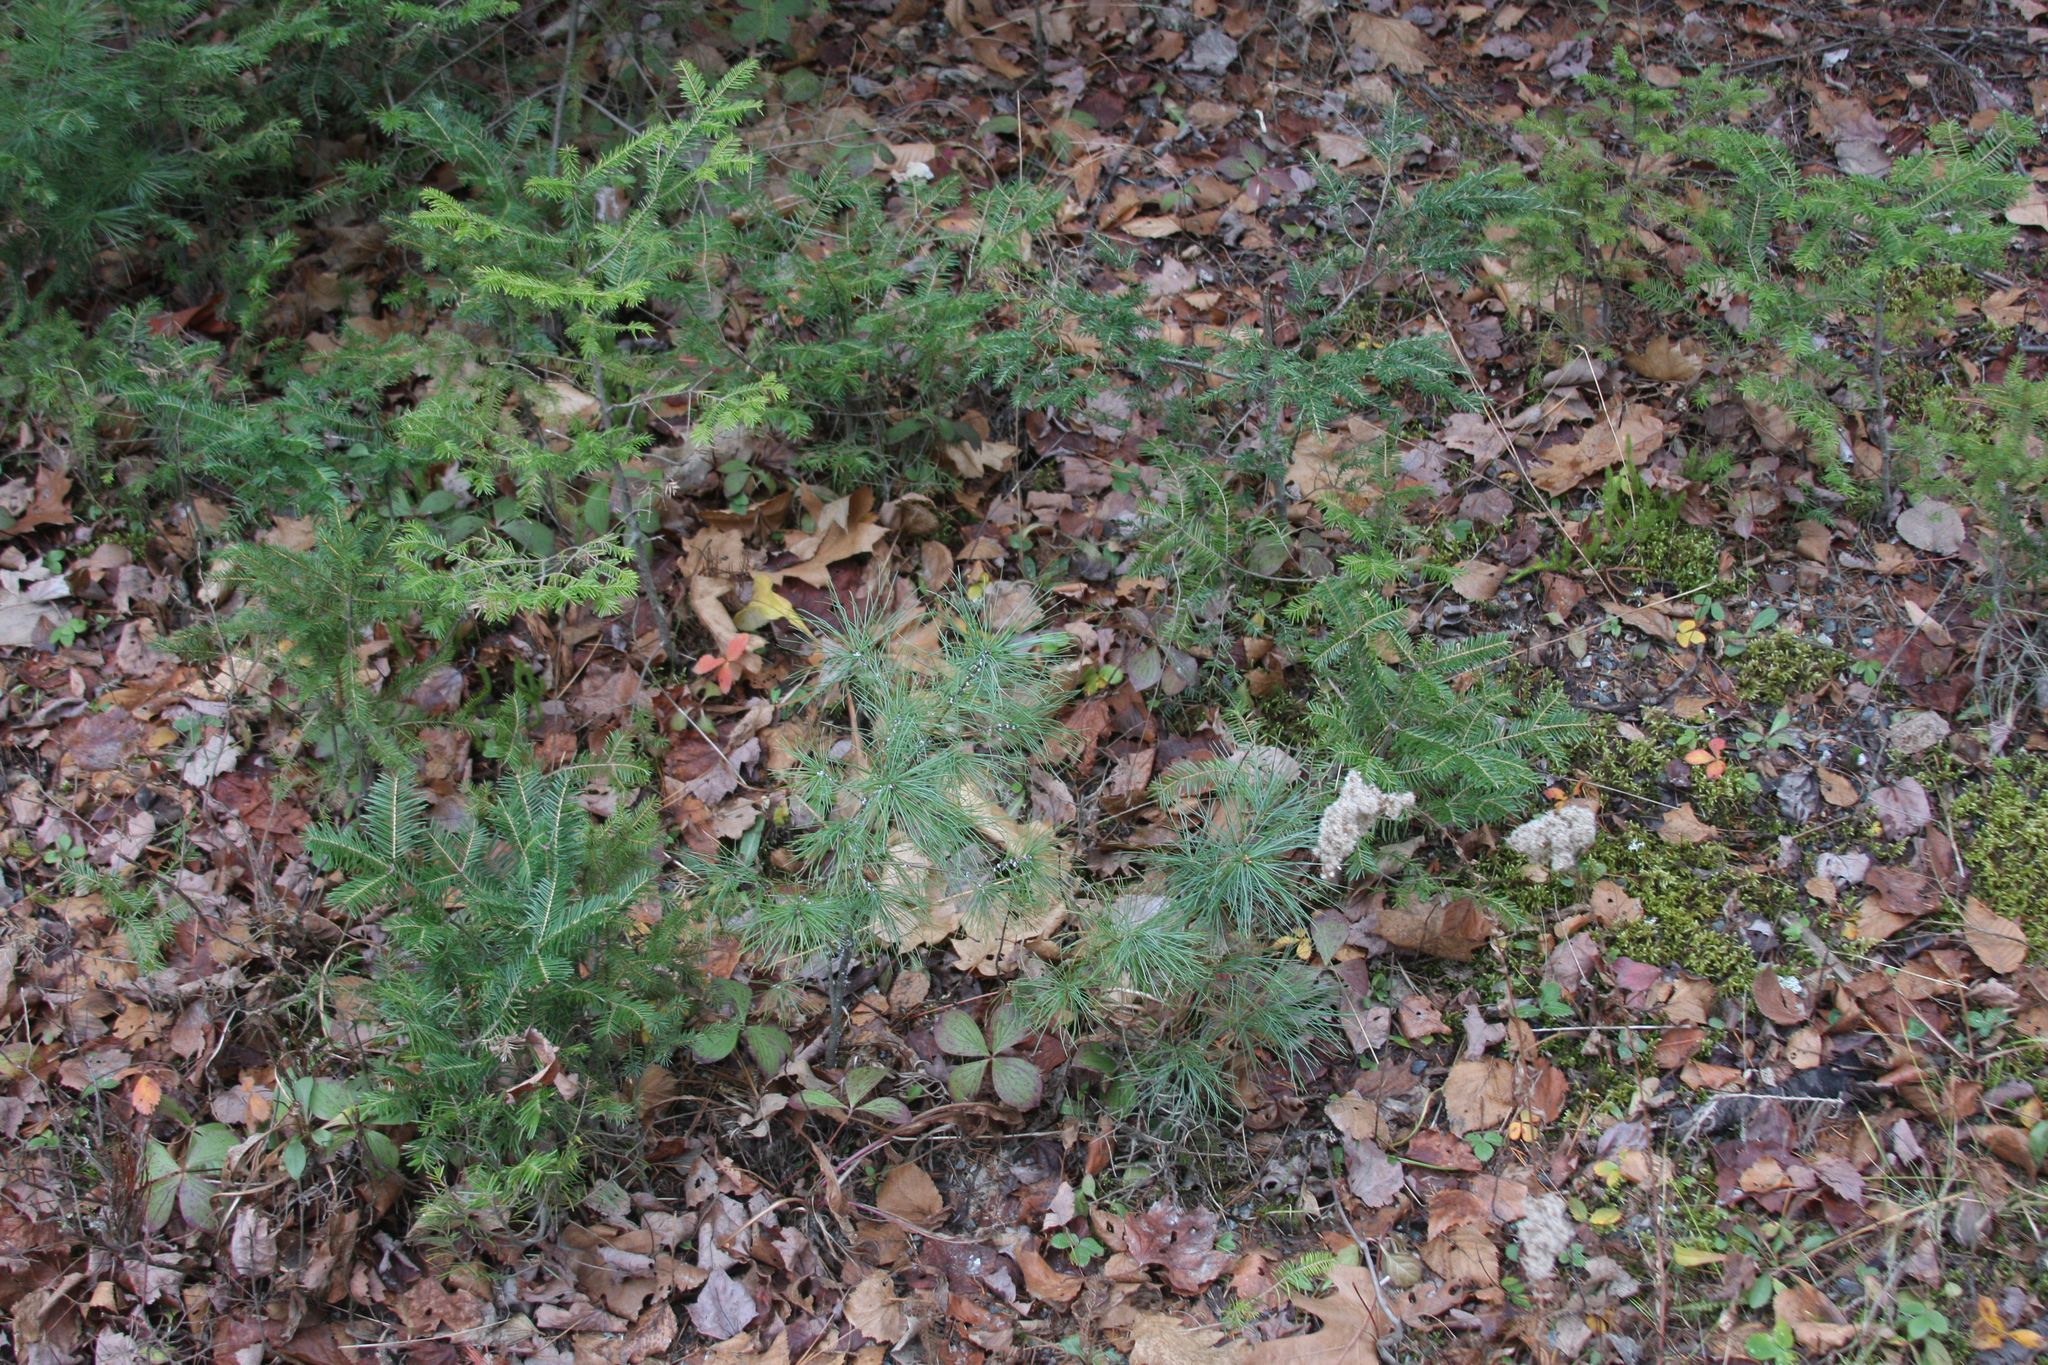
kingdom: Plantae
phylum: Tracheophyta
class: Pinopsida
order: Pinales
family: Pinaceae
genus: Pinus
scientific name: Pinus strobus
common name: Weymouth pine
